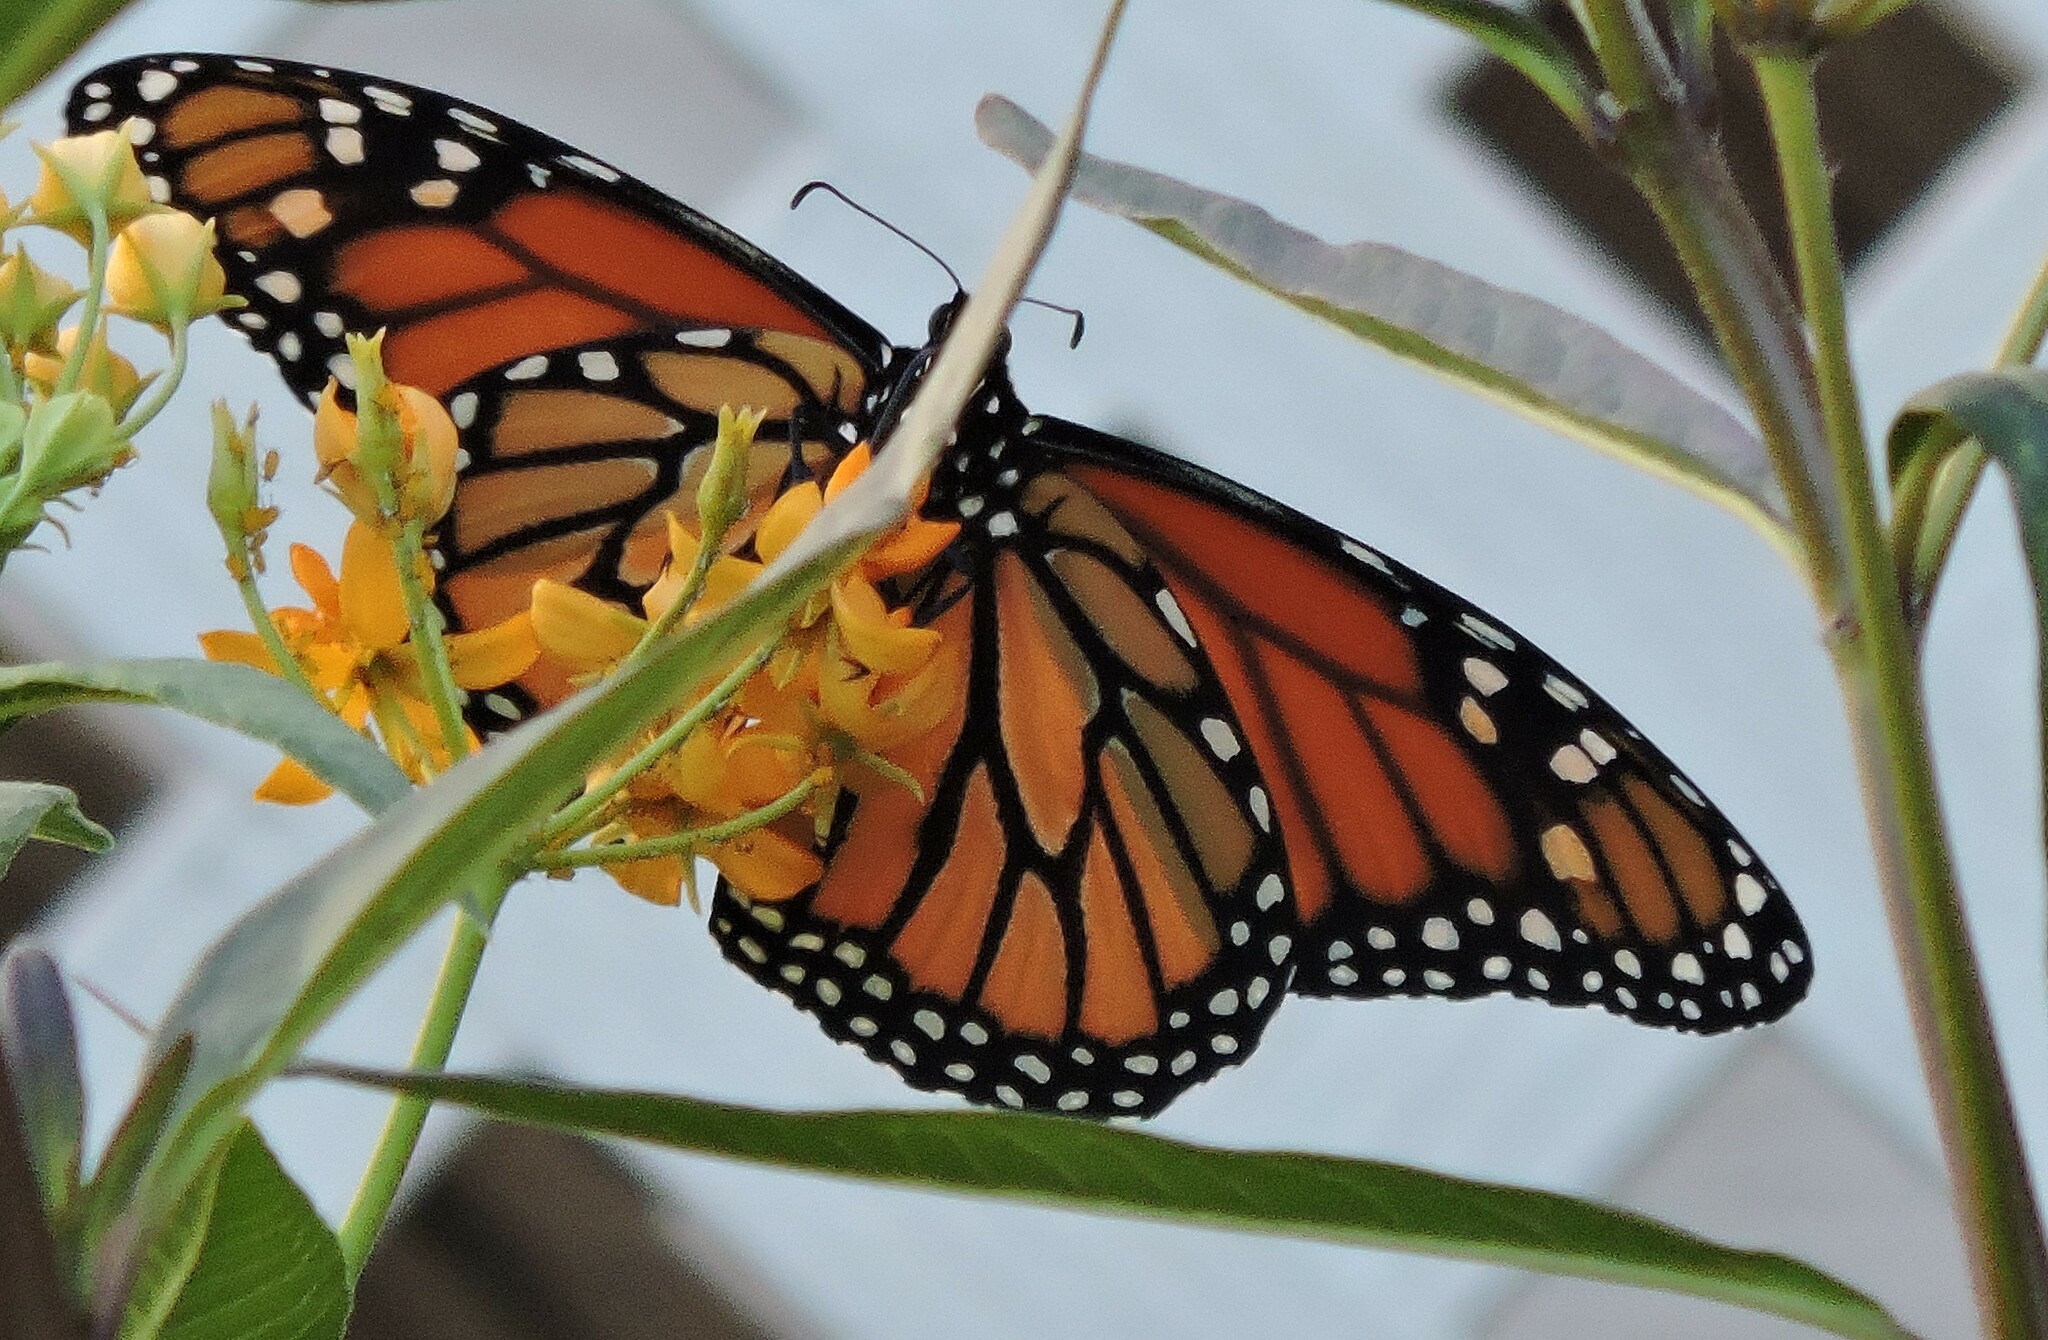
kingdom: Animalia
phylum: Arthropoda
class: Insecta
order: Lepidoptera
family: Nymphalidae
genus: Danaus
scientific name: Danaus plexippus
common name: Monarch
